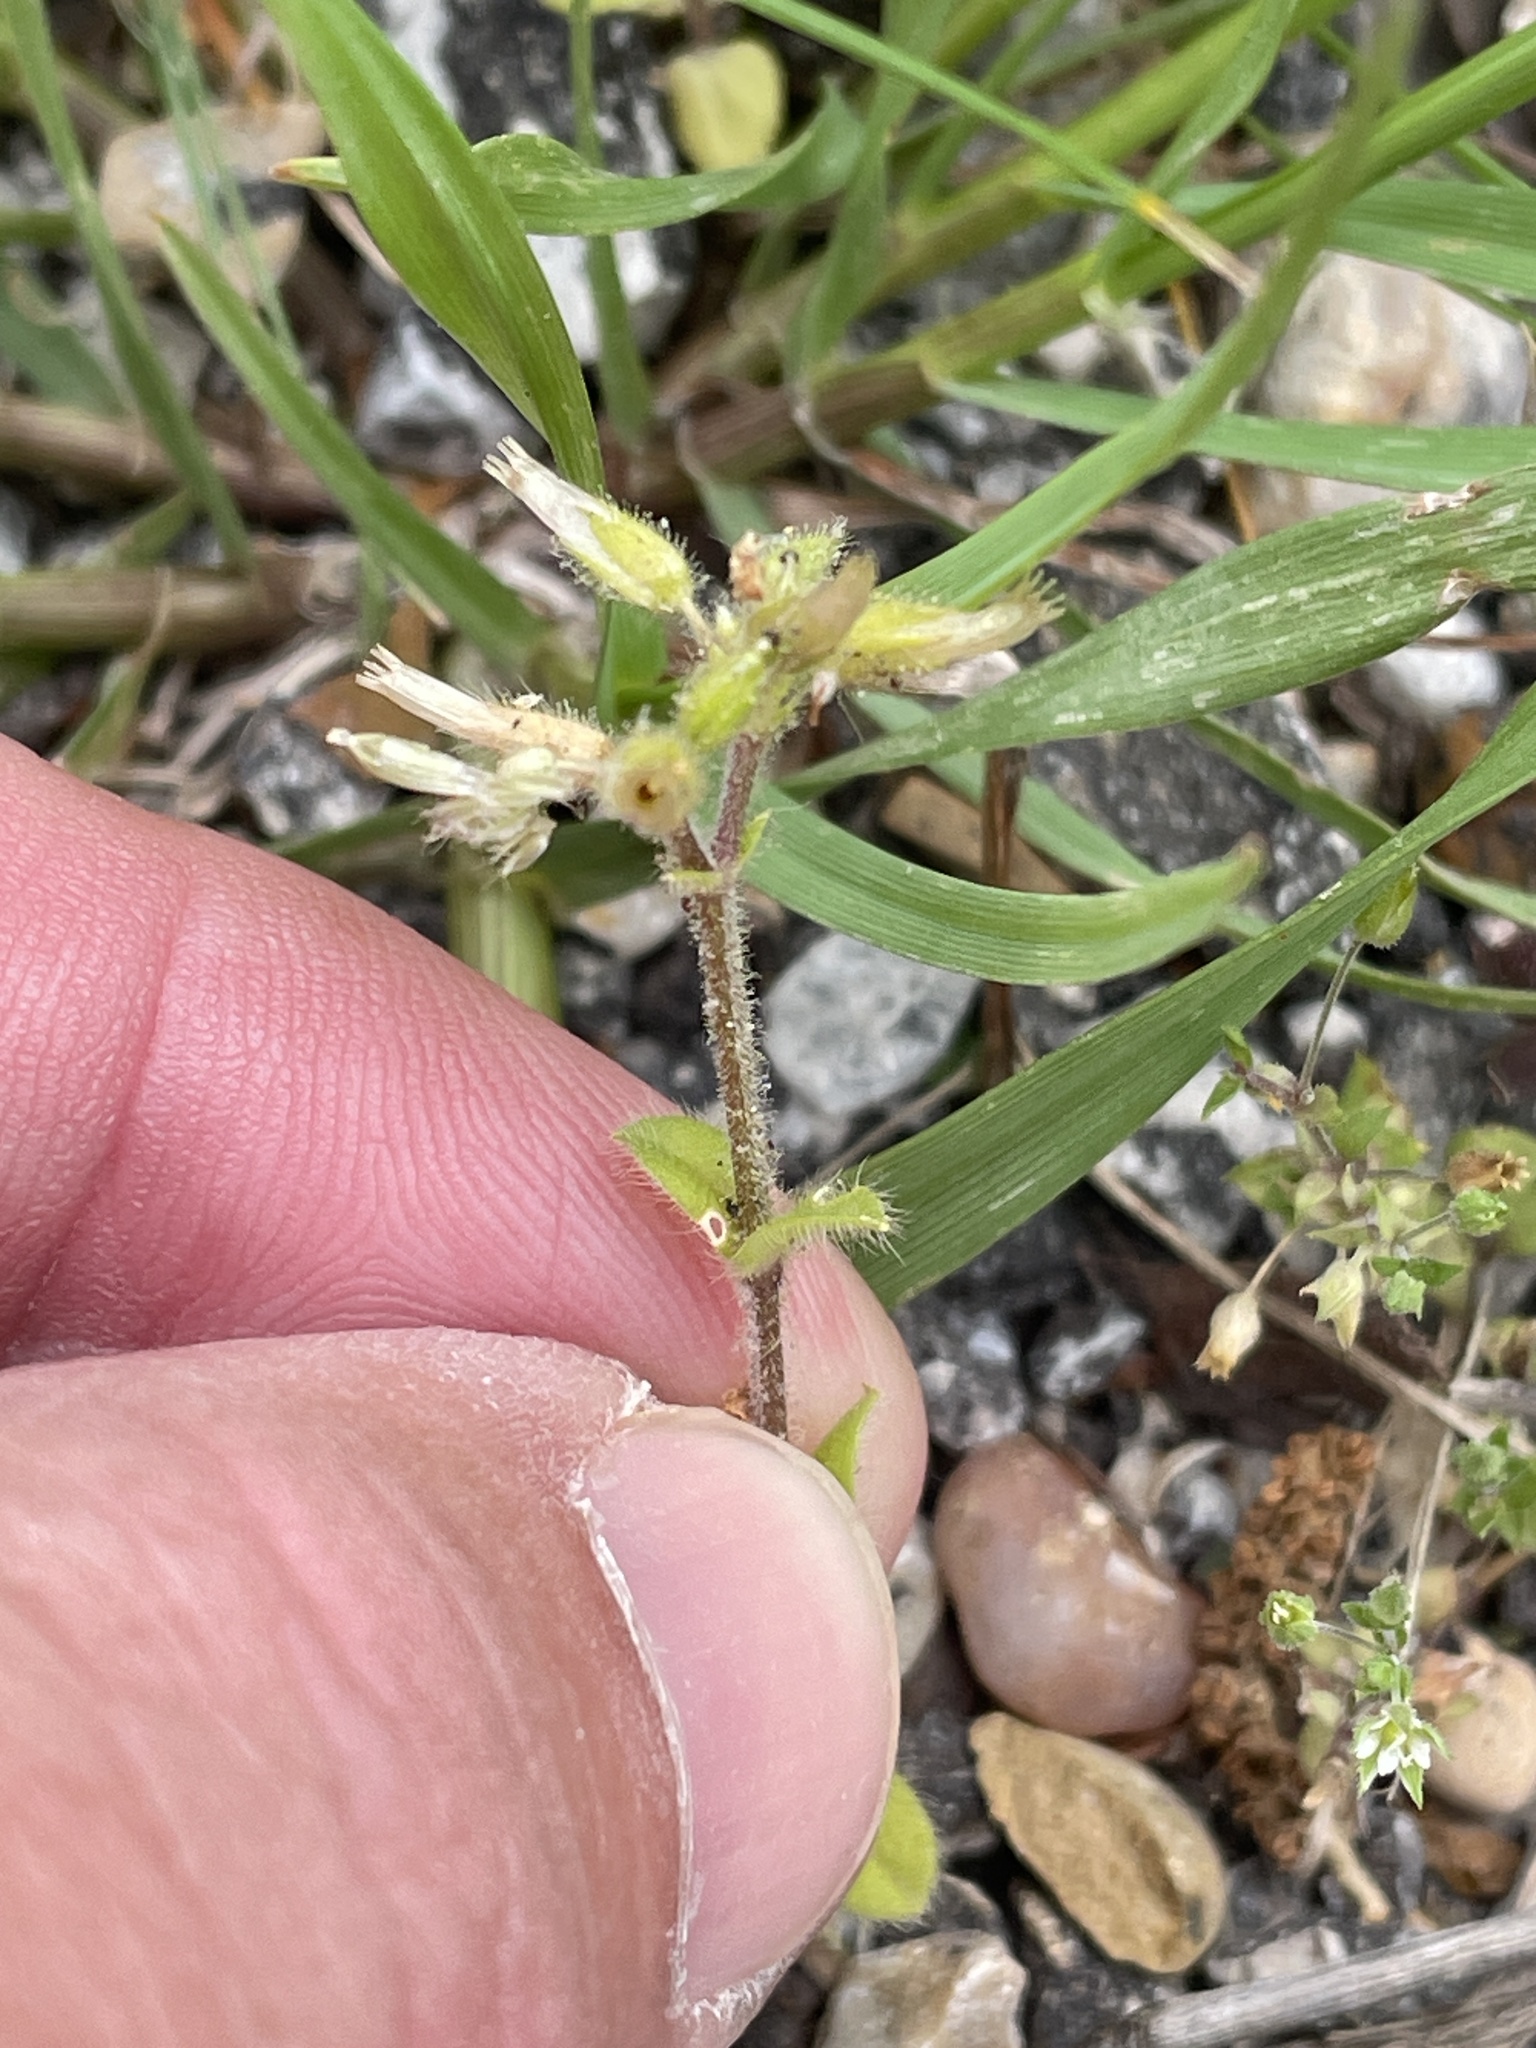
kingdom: Plantae
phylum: Tracheophyta
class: Magnoliopsida
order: Caryophyllales
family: Caryophyllaceae
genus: Cerastium
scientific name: Cerastium glomeratum
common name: Sticky chickweed
